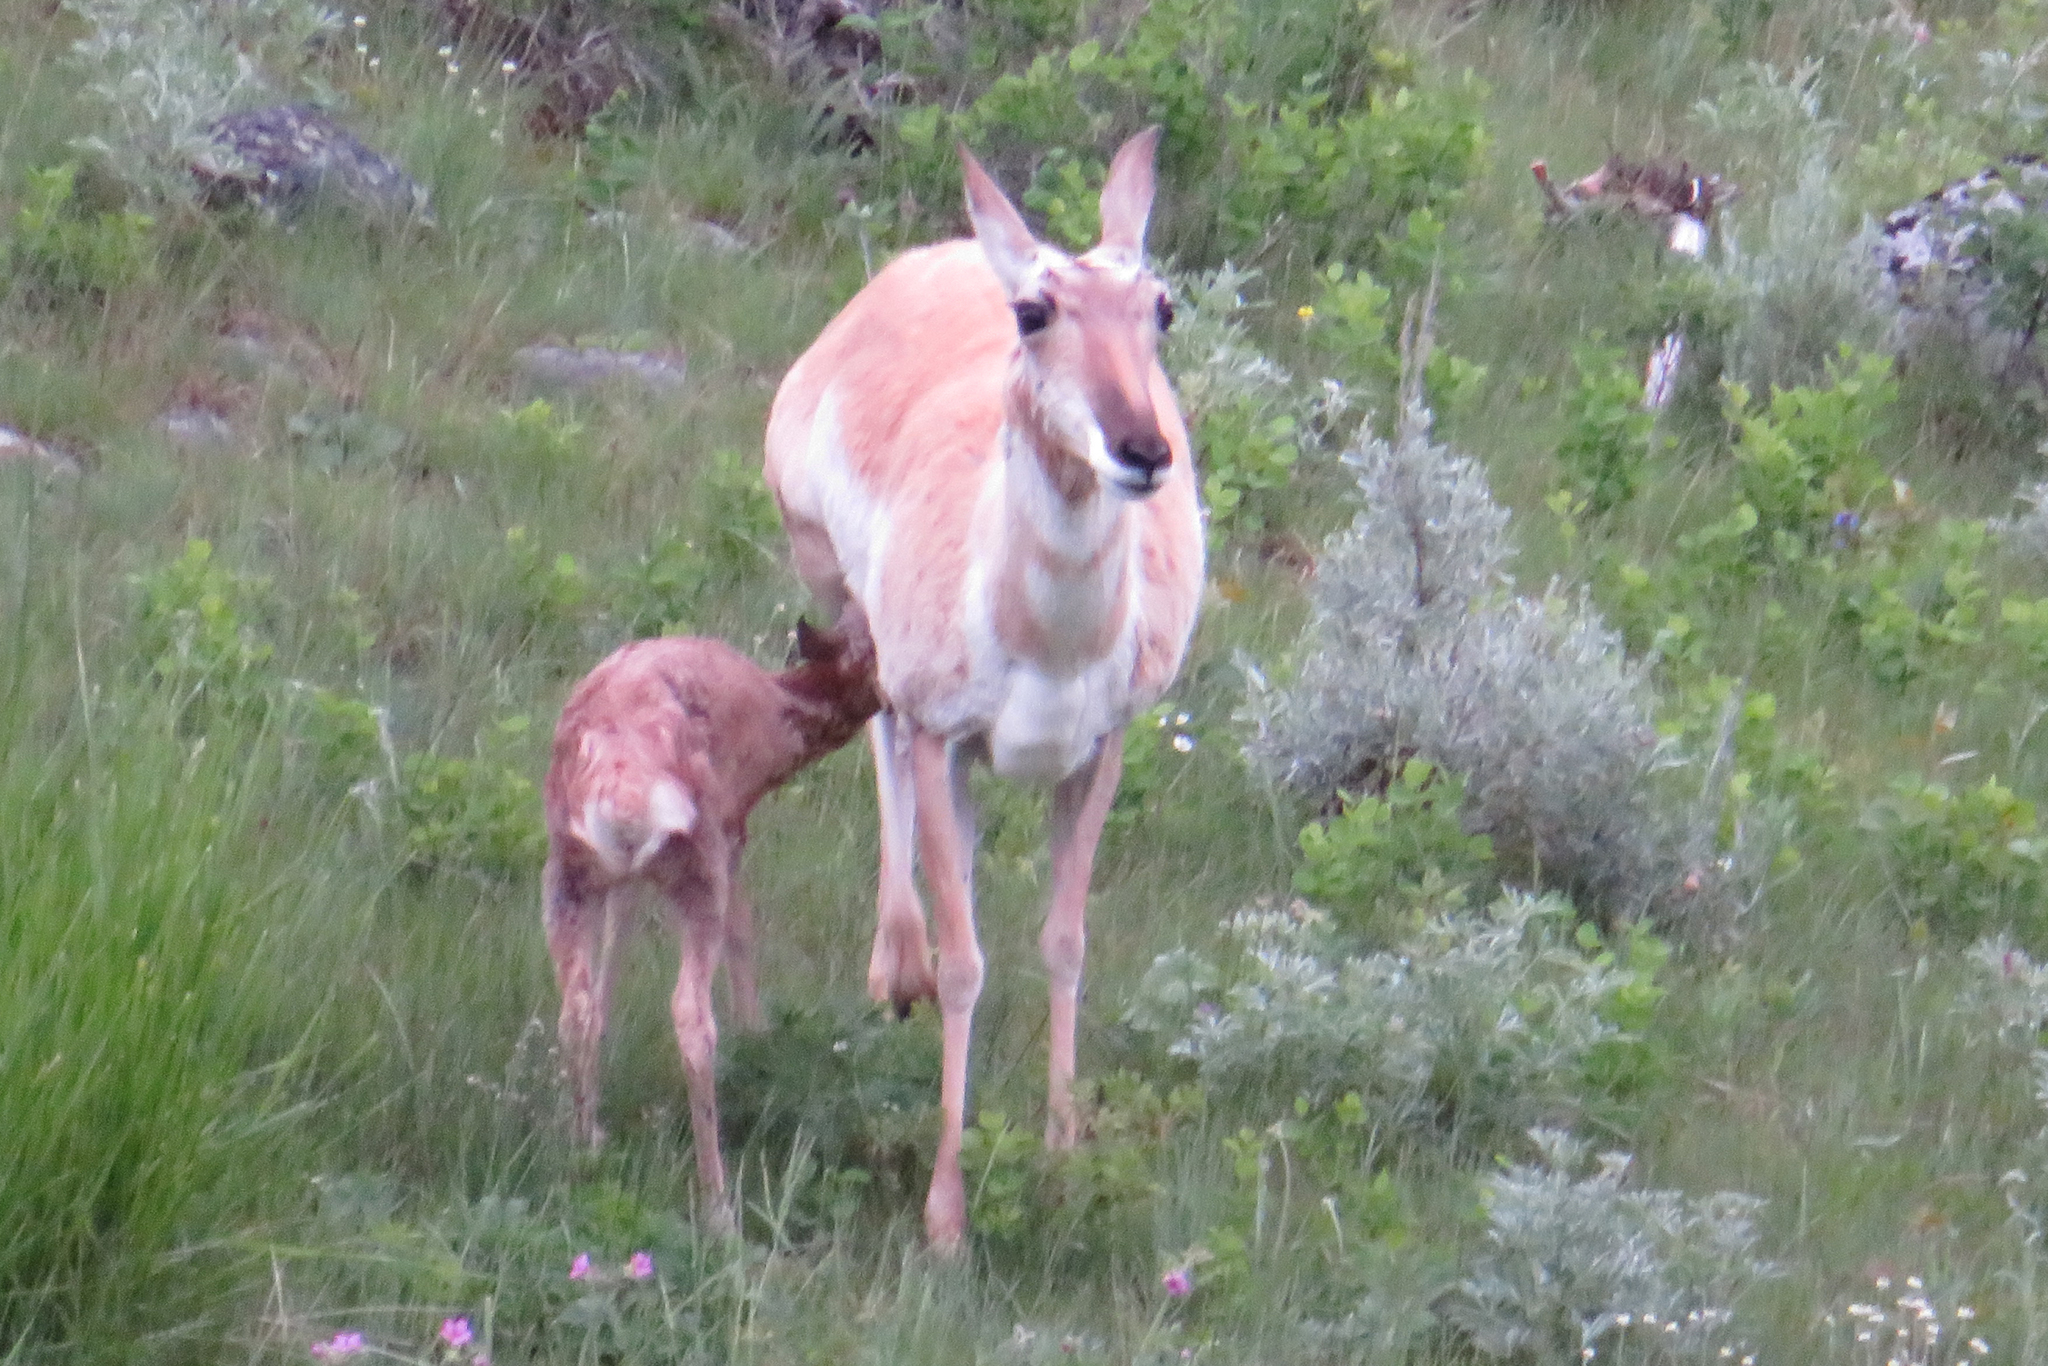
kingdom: Animalia
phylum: Chordata
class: Mammalia
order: Artiodactyla
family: Antilocapridae
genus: Antilocapra
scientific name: Antilocapra americana
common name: Pronghorn
